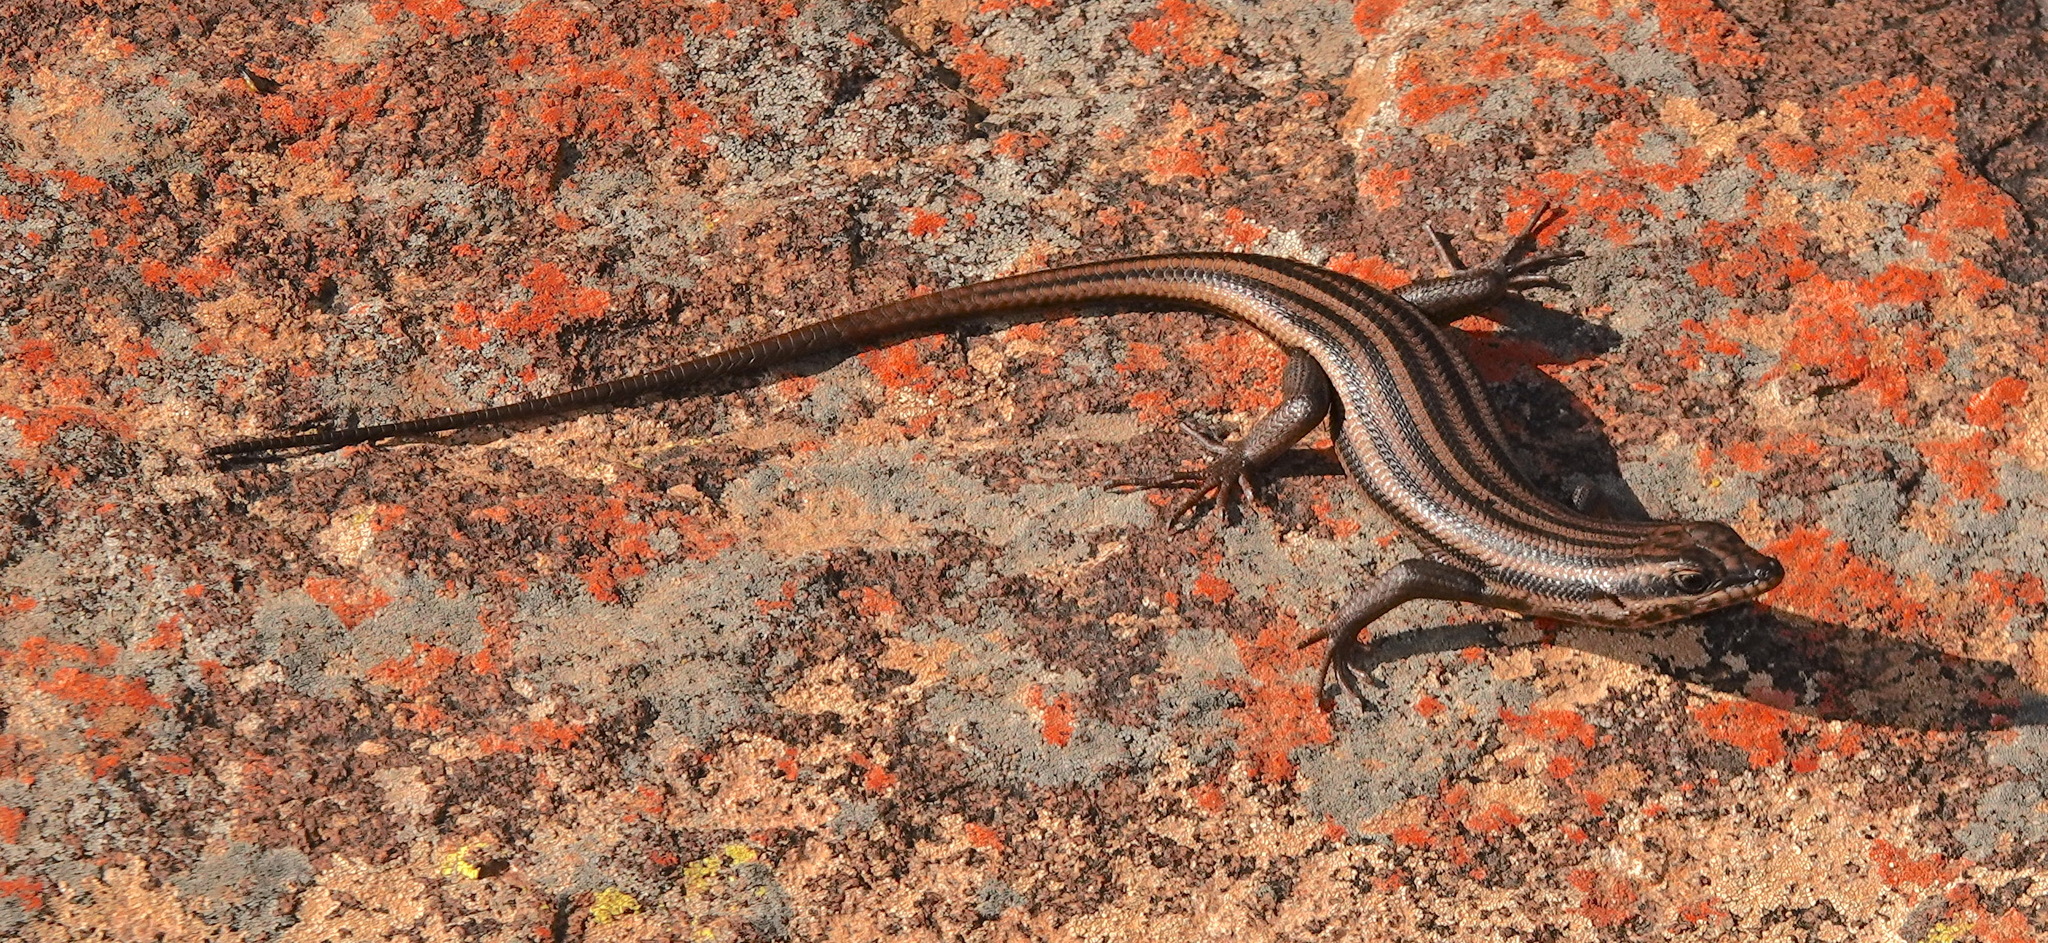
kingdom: Animalia
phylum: Chordata
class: Squamata
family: Scincidae
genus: Trachylepis
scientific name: Trachylepis sulcata
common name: Western rock skink
